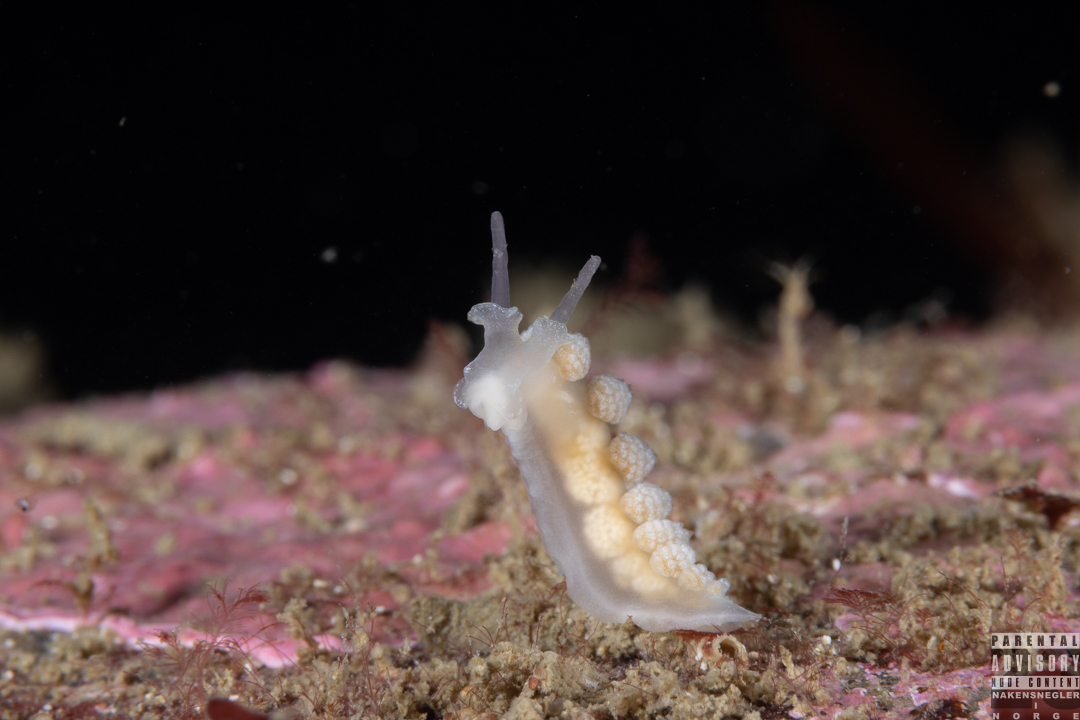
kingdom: Animalia
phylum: Mollusca
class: Gastropoda
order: Nudibranchia
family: Dotidae
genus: Doto
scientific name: Doto fragilis
